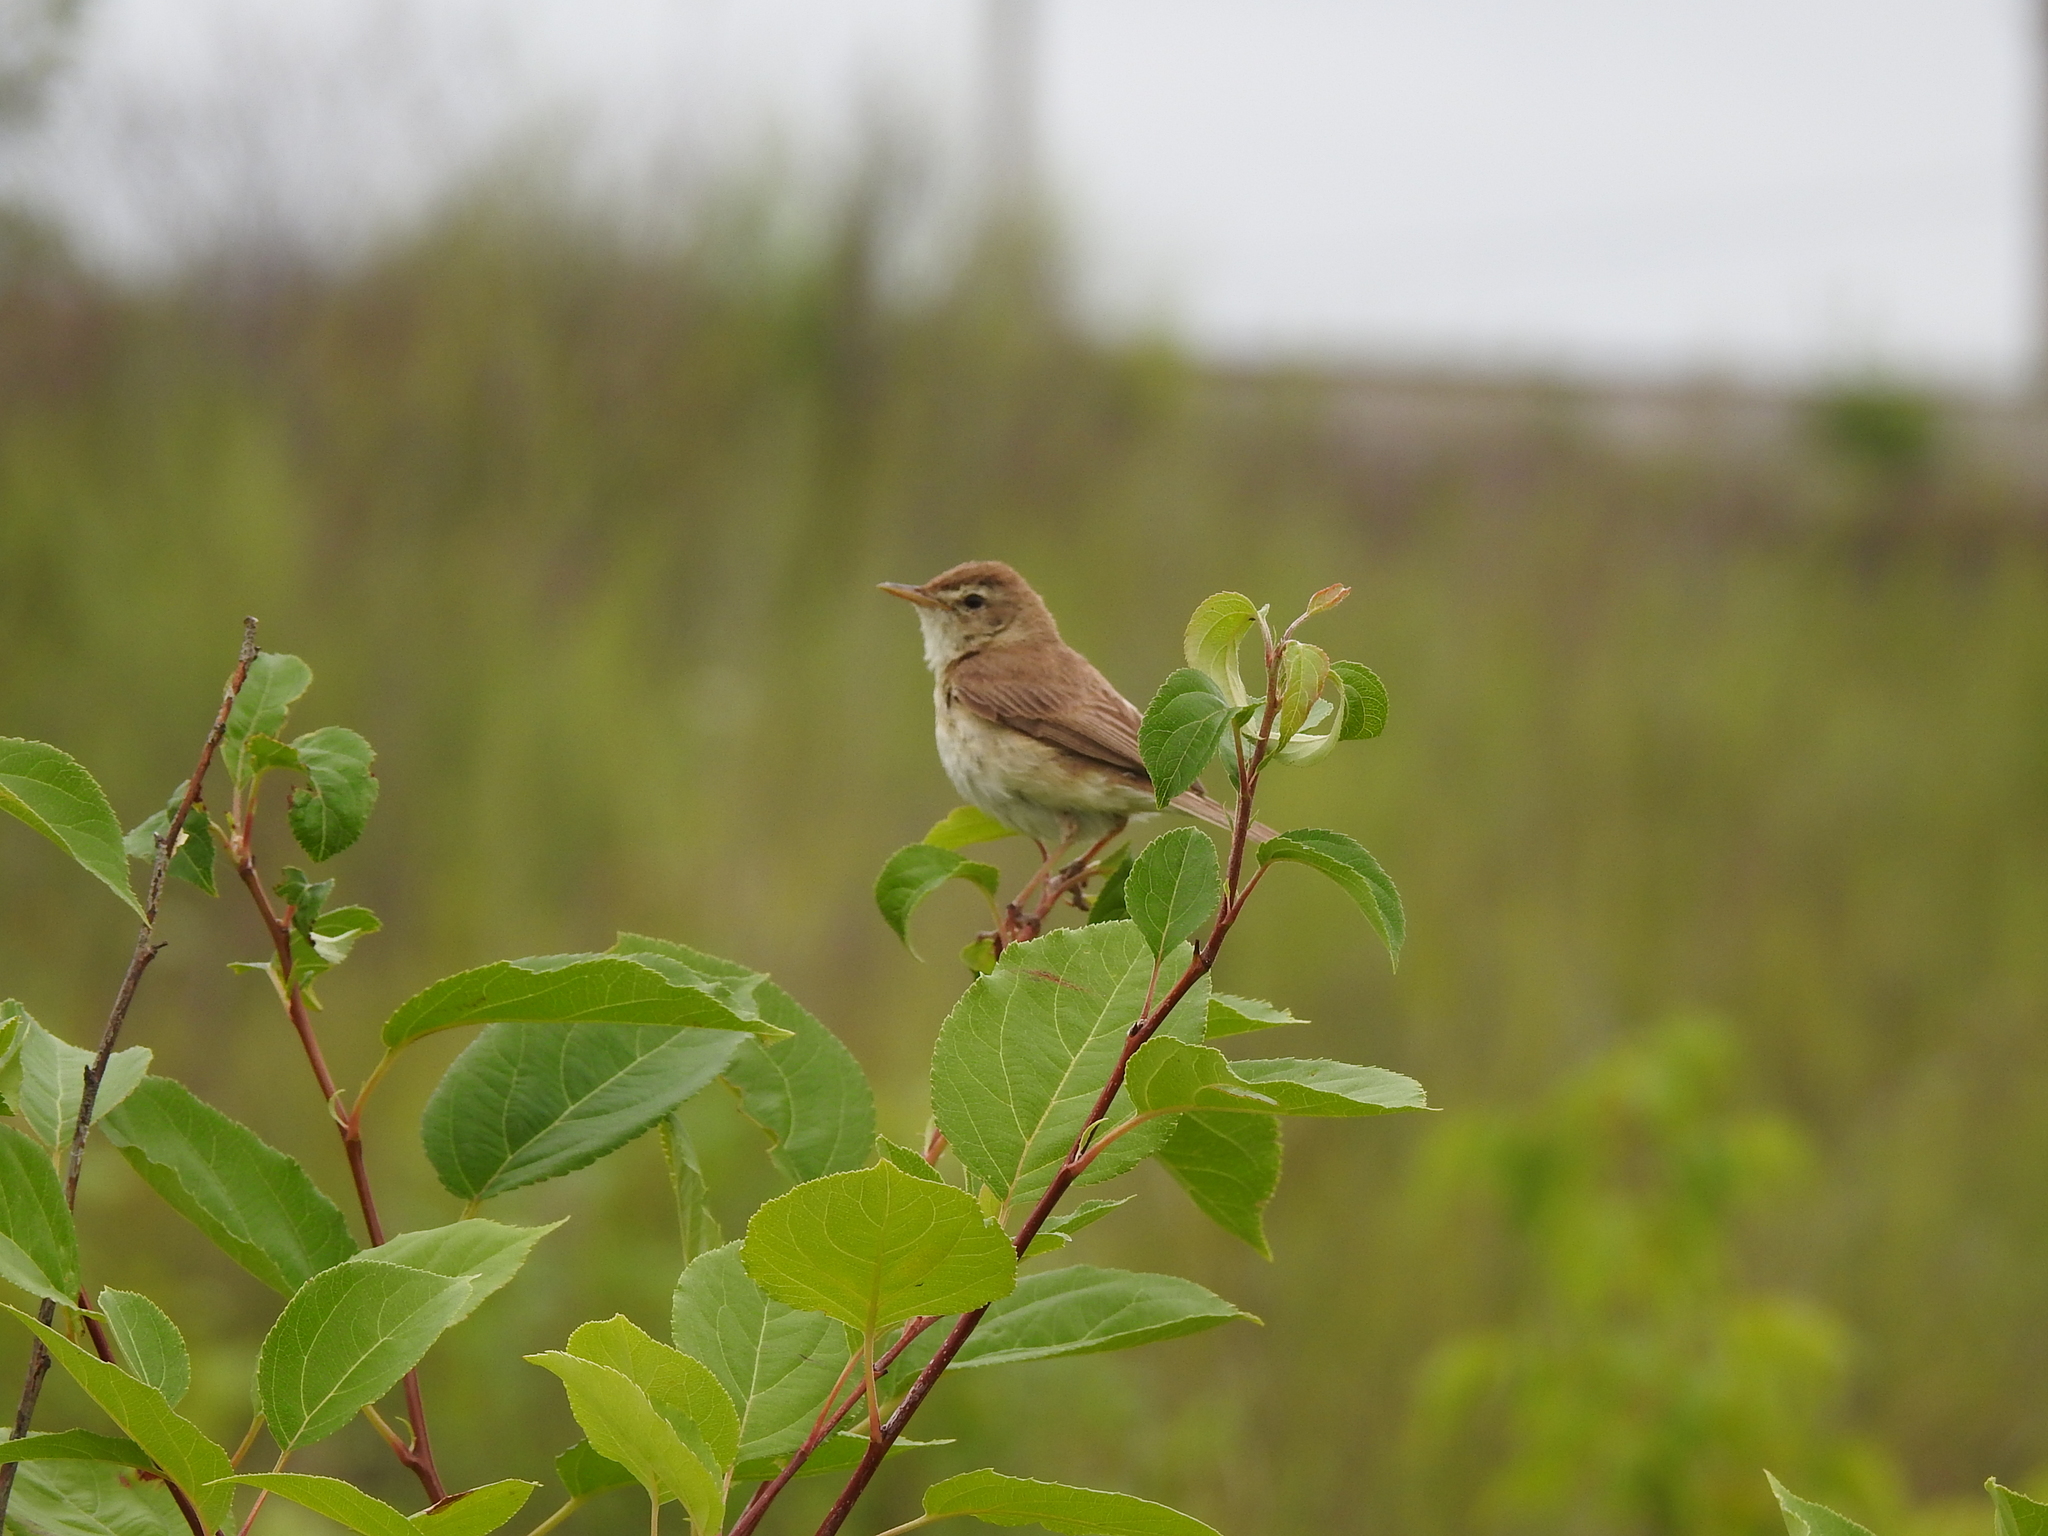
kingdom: Animalia
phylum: Chordata
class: Aves
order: Passeriformes
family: Acrocephalidae
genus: Iduna
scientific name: Iduna caligata
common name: Booted warbler
